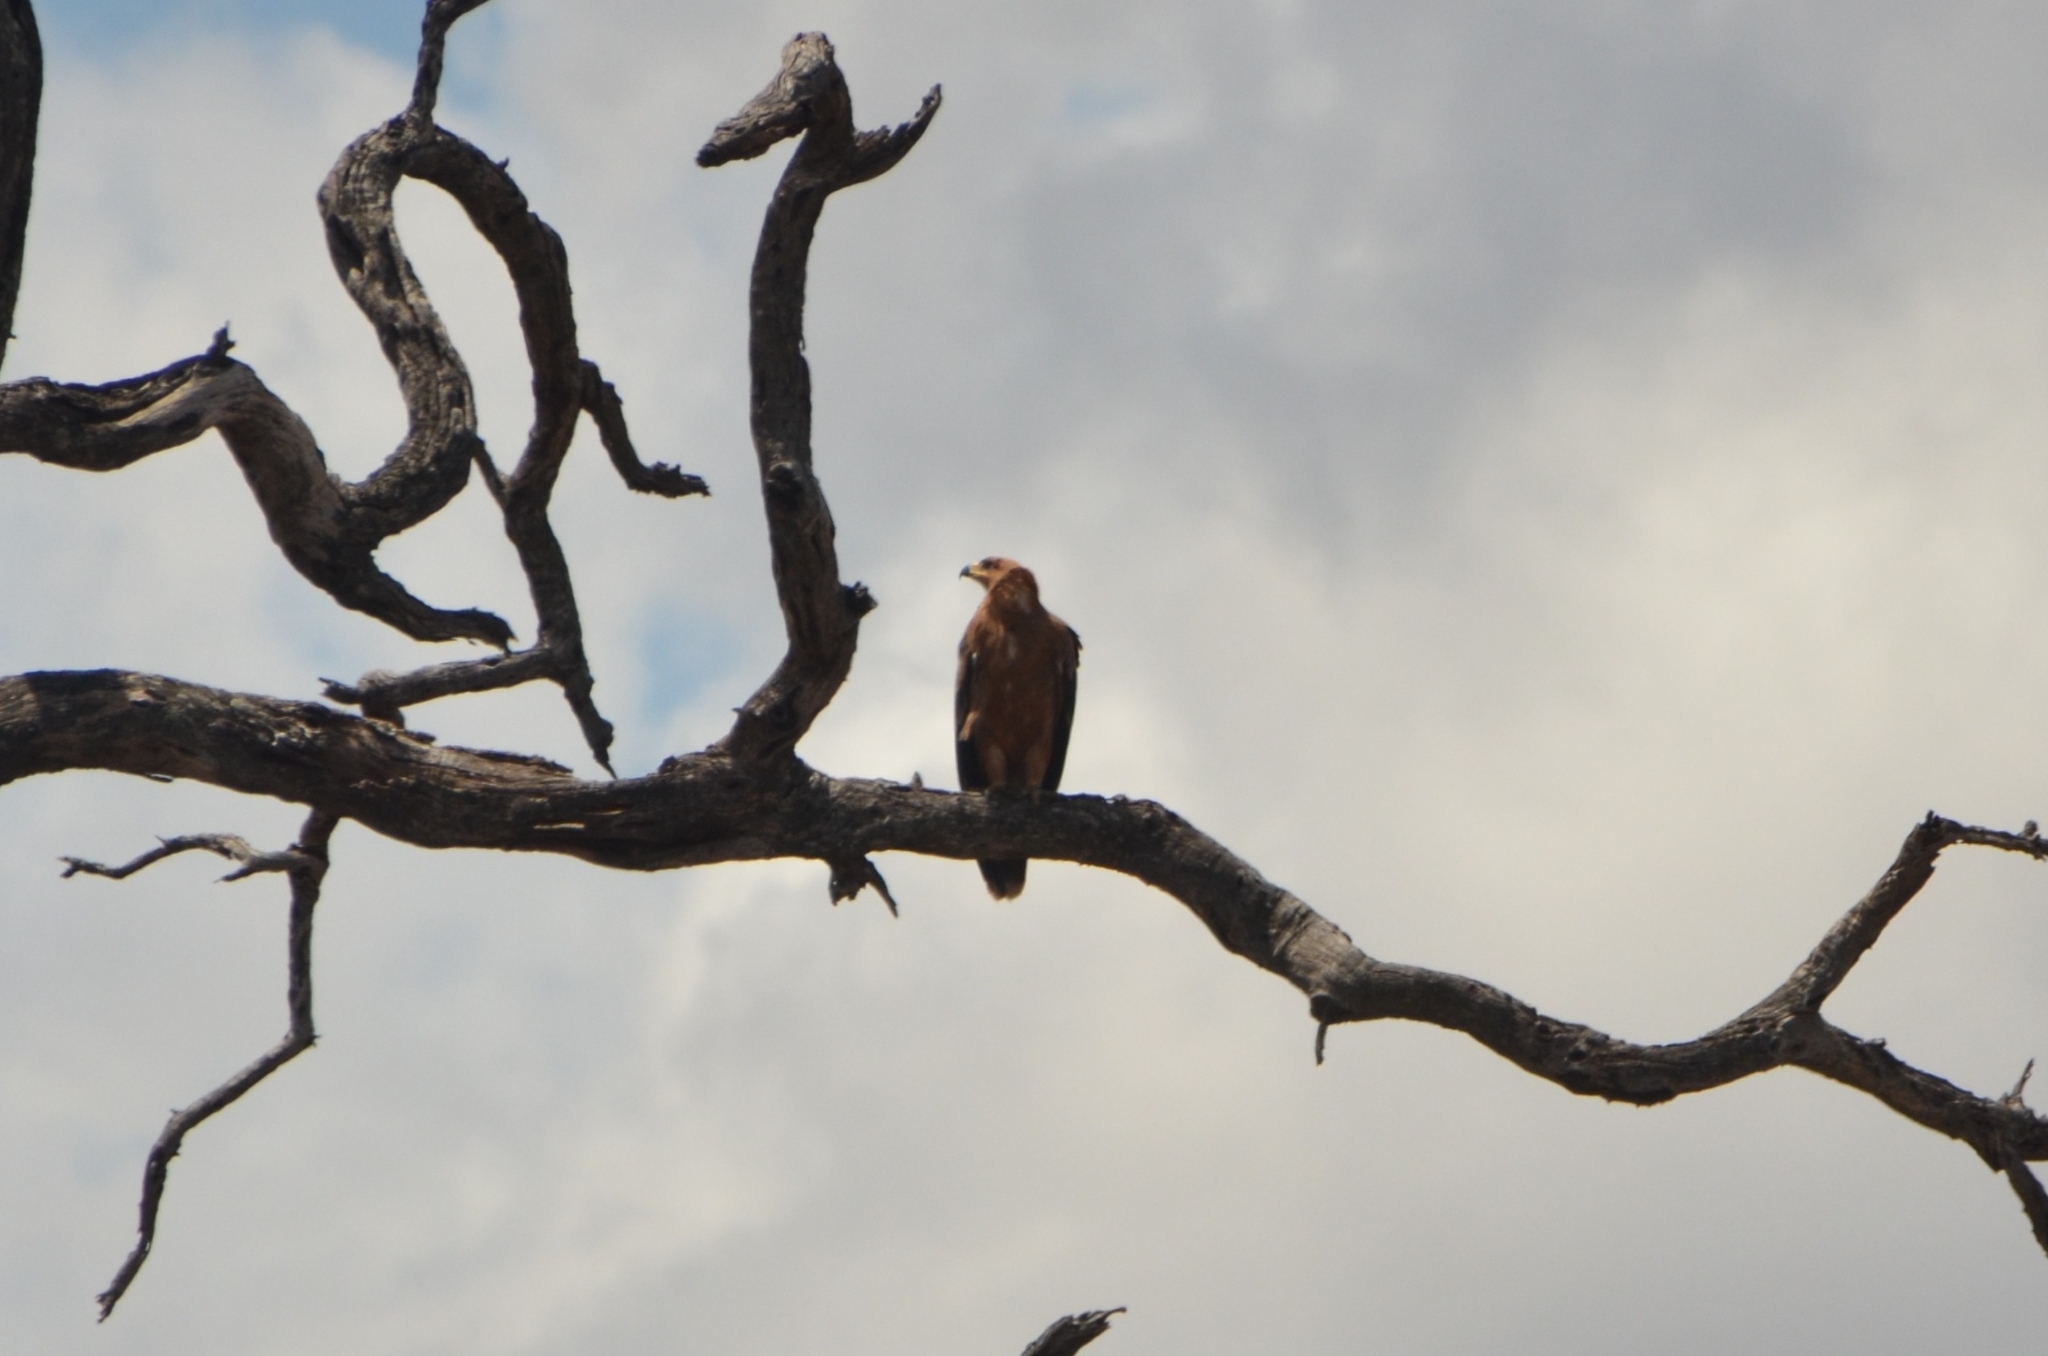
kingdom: Animalia
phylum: Chordata
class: Aves
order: Accipitriformes
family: Accipitridae
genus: Aquila
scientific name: Aquila rapax
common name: Tawny eagle
